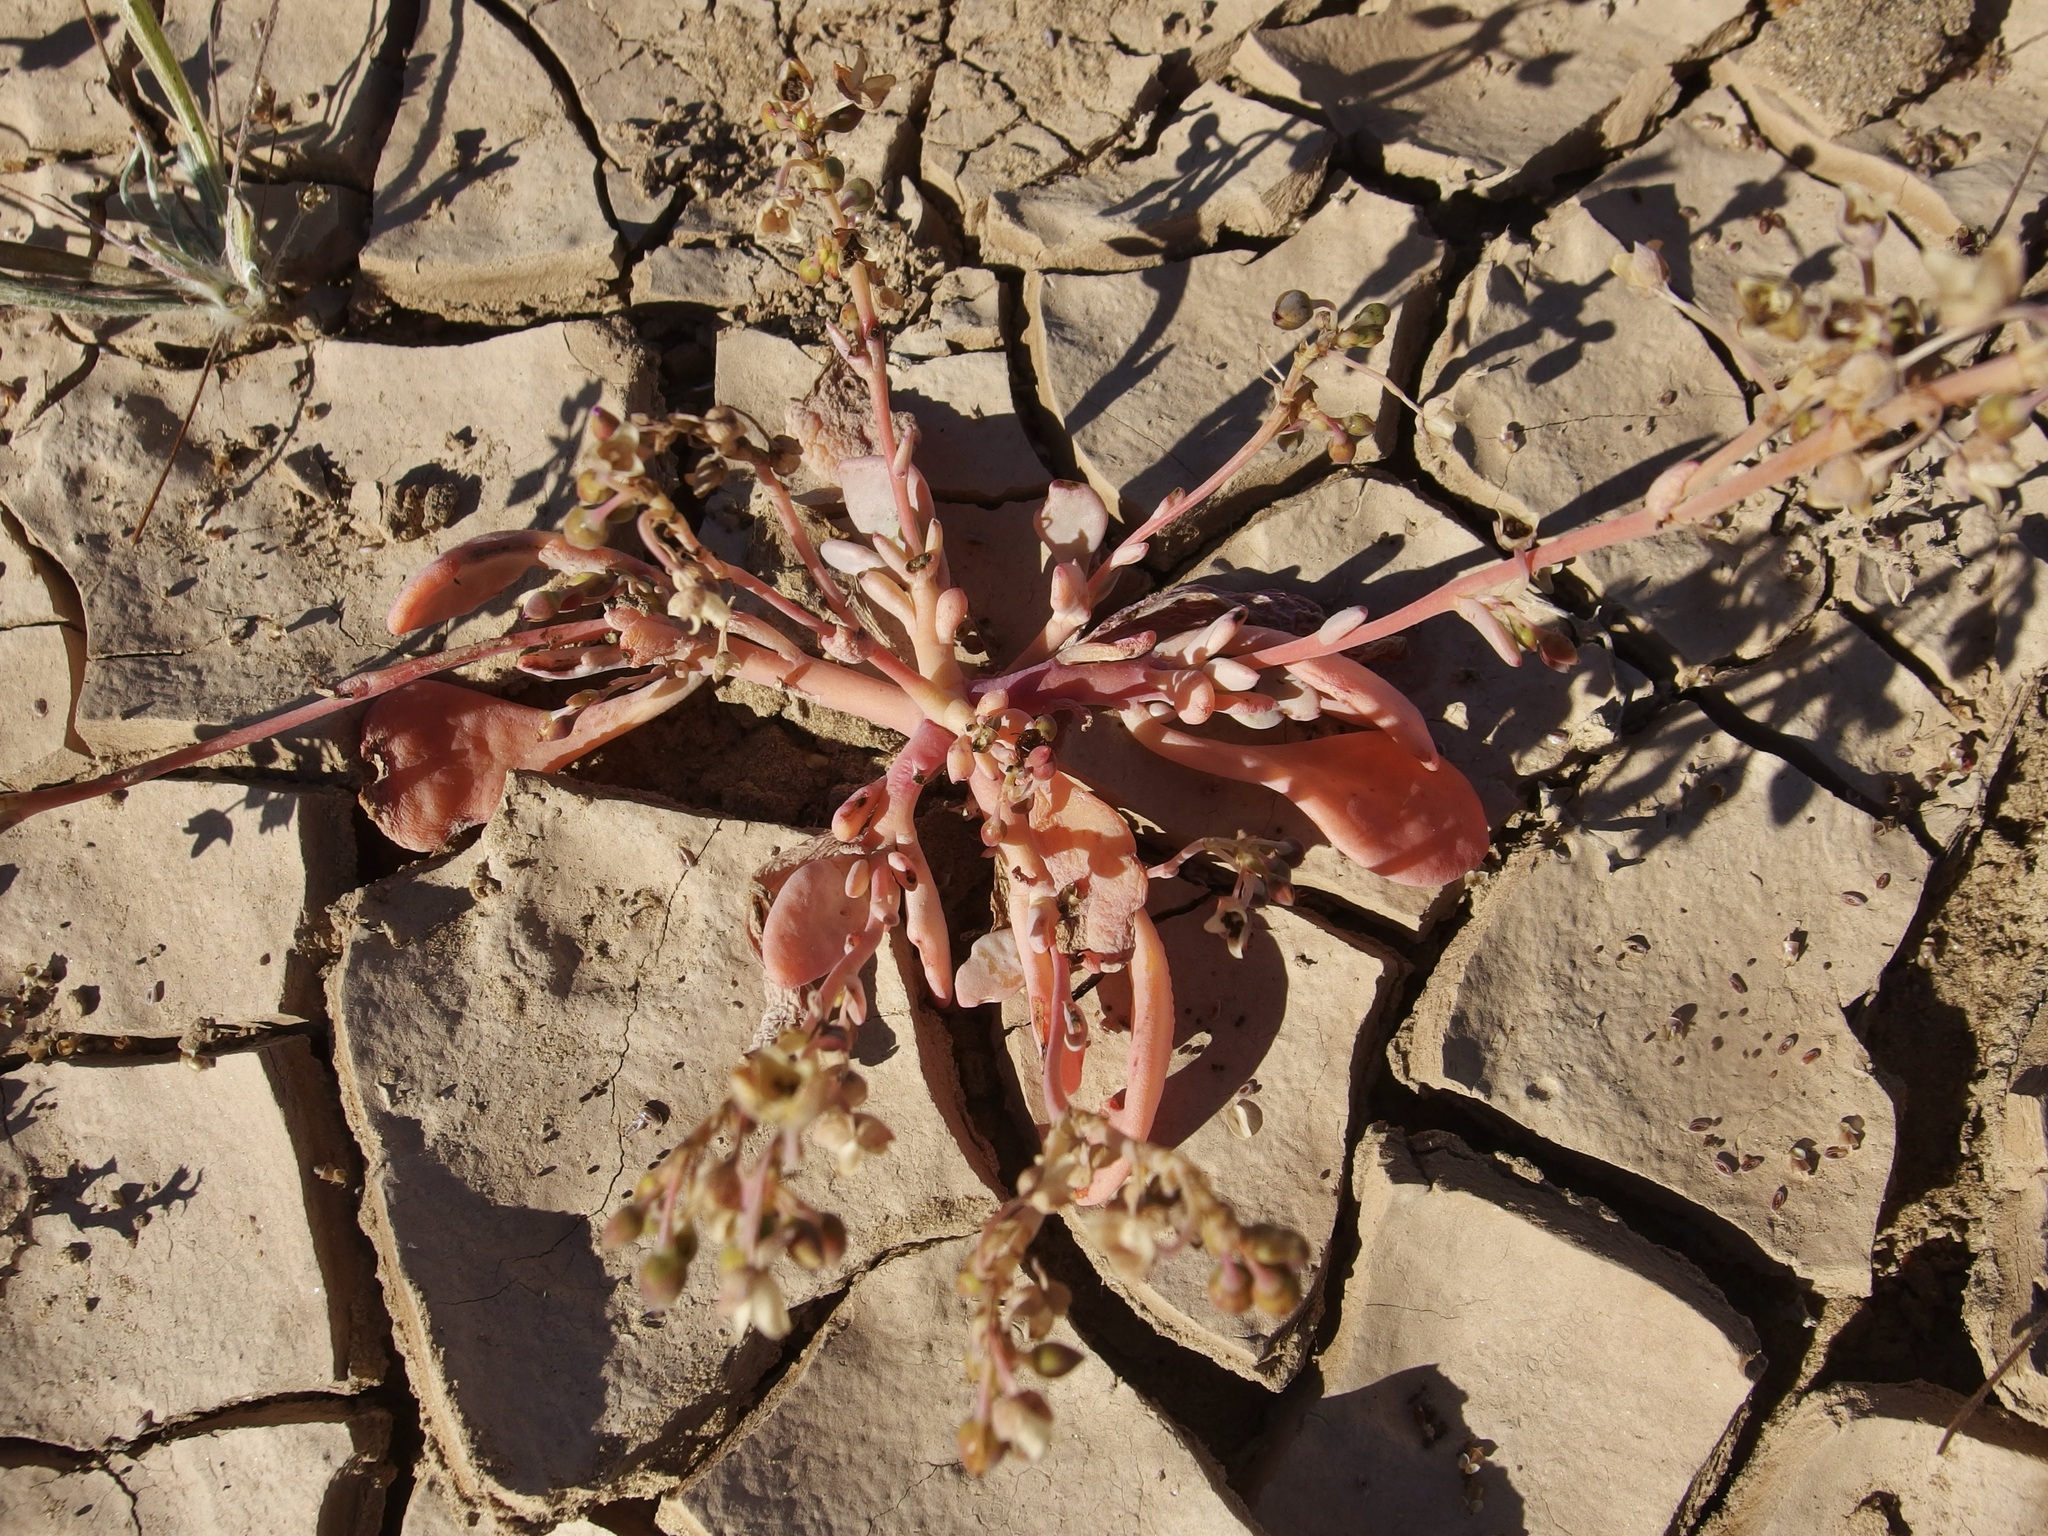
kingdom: Plantae
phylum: Tracheophyta
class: Magnoliopsida
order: Caryophyllales
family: Montiaceae
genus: Cistanthe
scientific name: Cistanthe maritima
